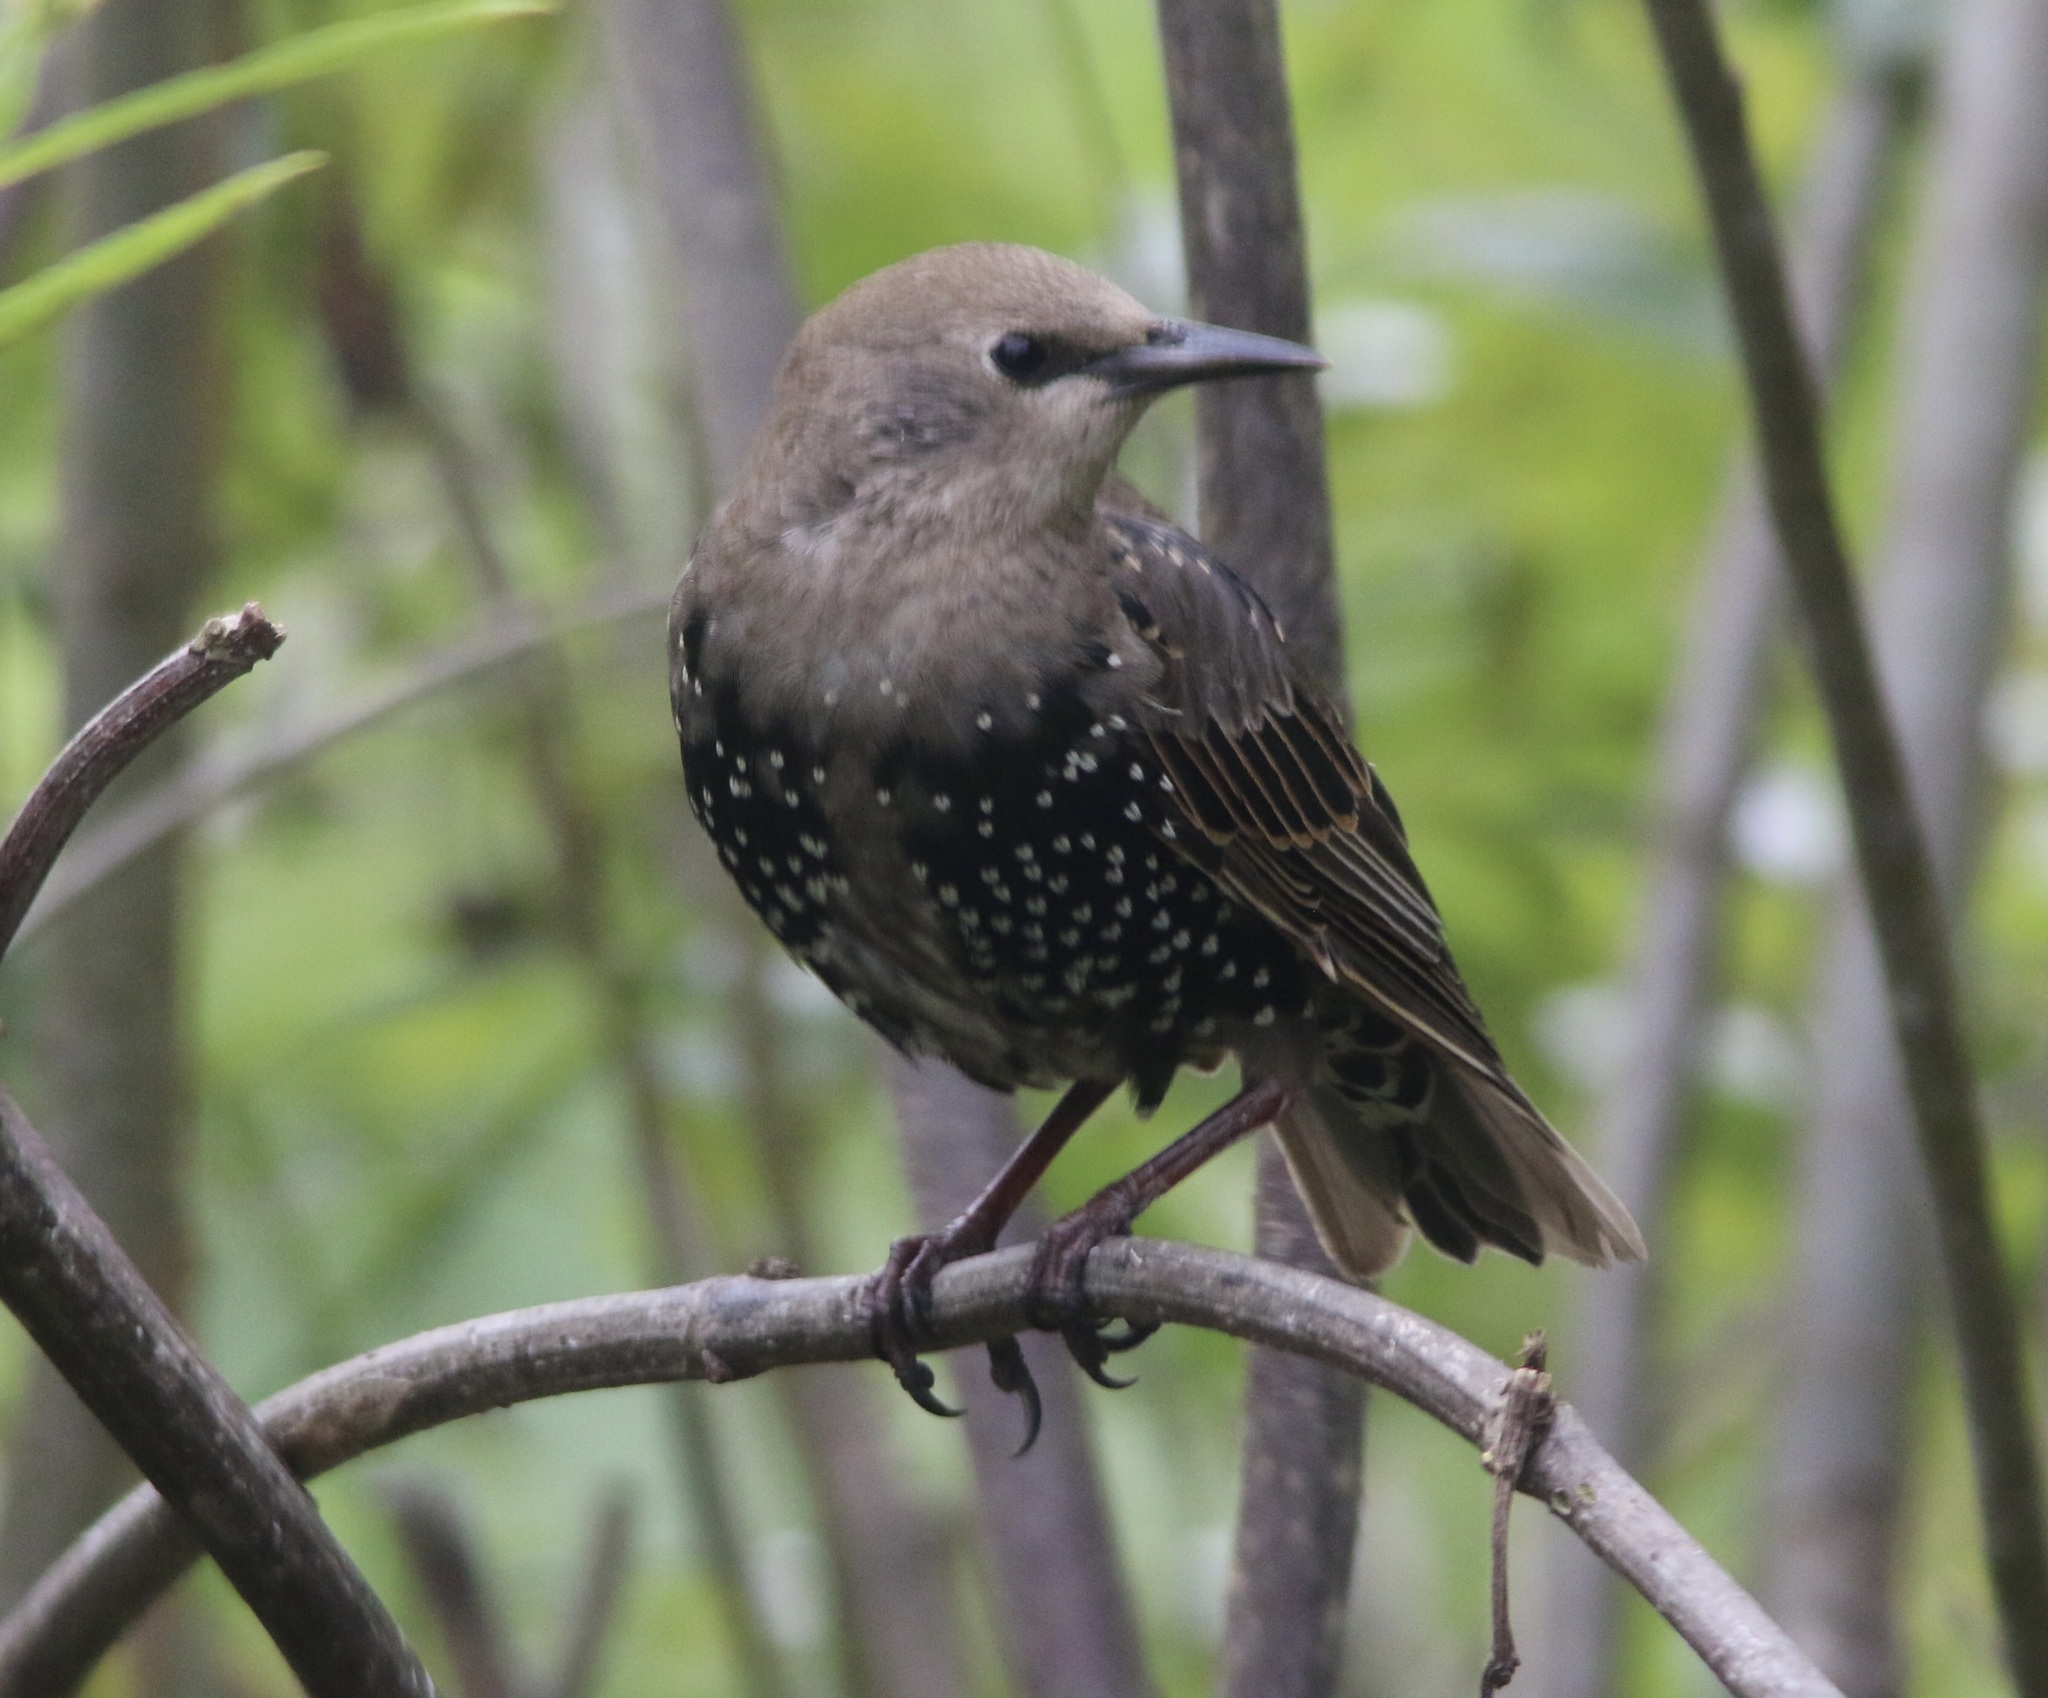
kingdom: Animalia
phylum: Chordata
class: Aves
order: Passeriformes
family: Sturnidae
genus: Sturnus
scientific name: Sturnus vulgaris
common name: Common starling
